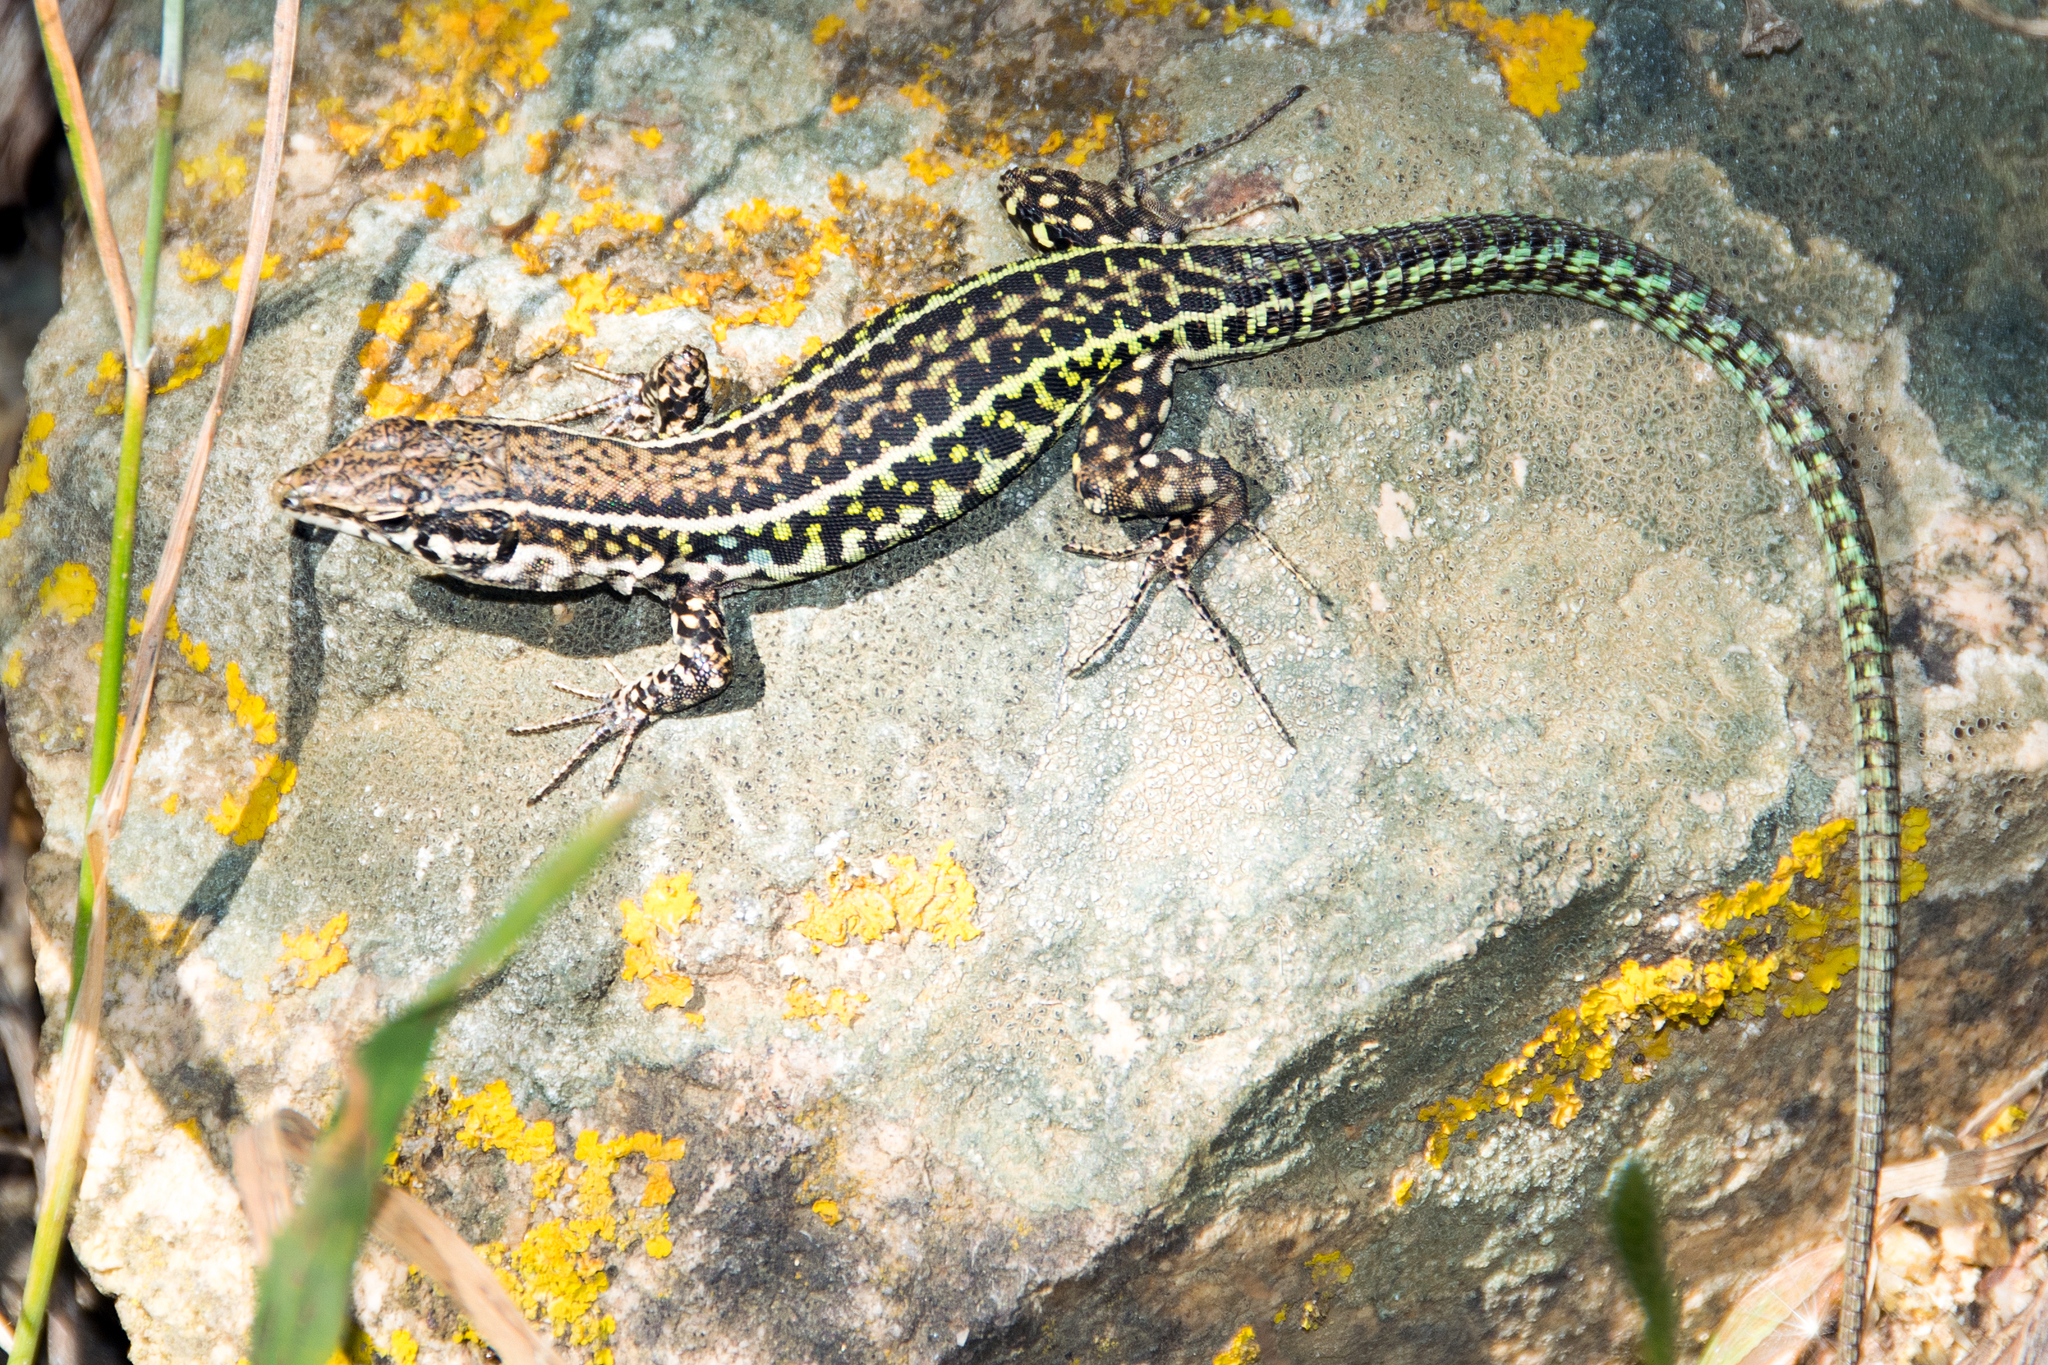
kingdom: Animalia
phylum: Chordata
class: Squamata
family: Lacertidae
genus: Podarcis
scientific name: Podarcis tiliguerta
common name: Tyrrhenian wall lizard
